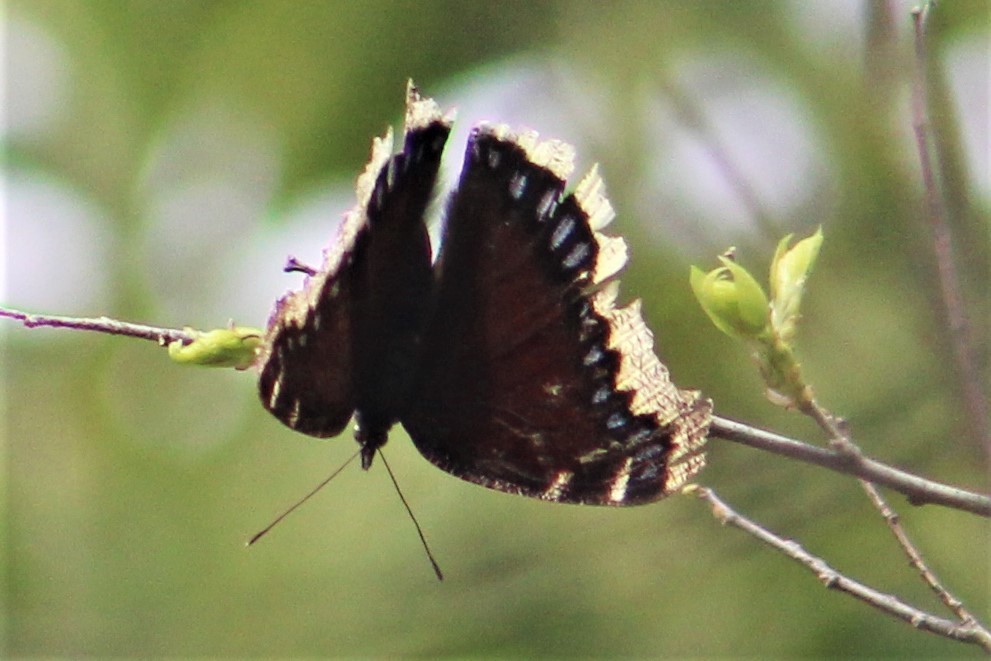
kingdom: Animalia
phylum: Arthropoda
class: Insecta
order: Lepidoptera
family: Nymphalidae
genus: Nymphalis
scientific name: Nymphalis antiopa
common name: Camberwell beauty
